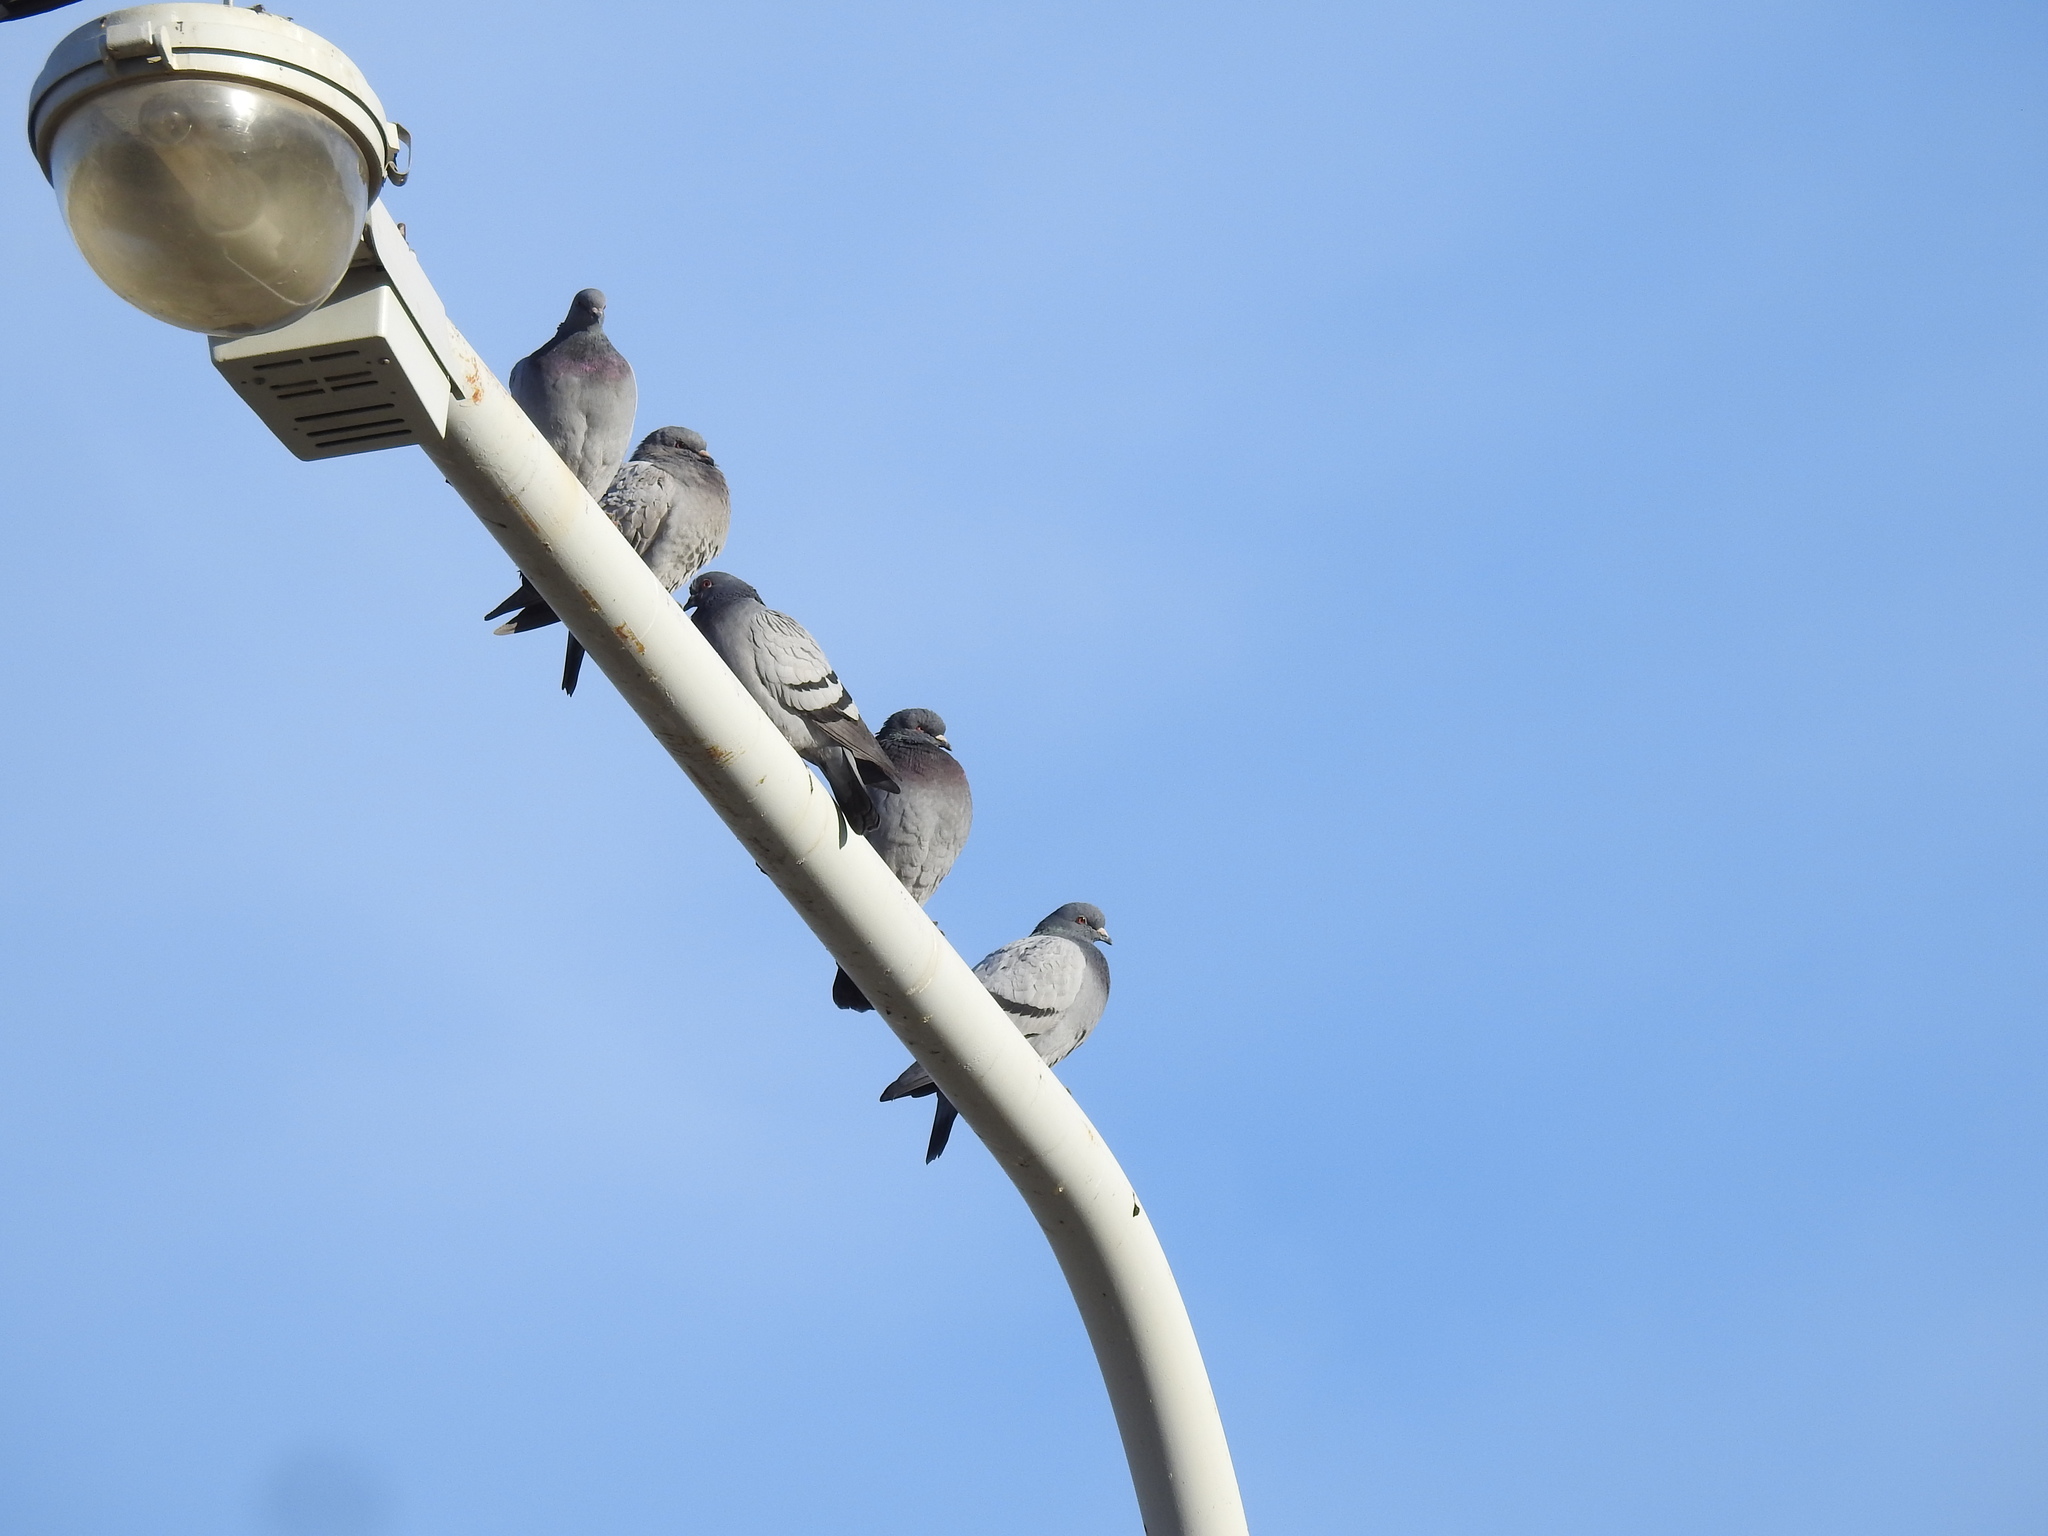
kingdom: Animalia
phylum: Chordata
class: Aves
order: Columbiformes
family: Columbidae
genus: Columba
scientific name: Columba livia
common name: Rock pigeon
